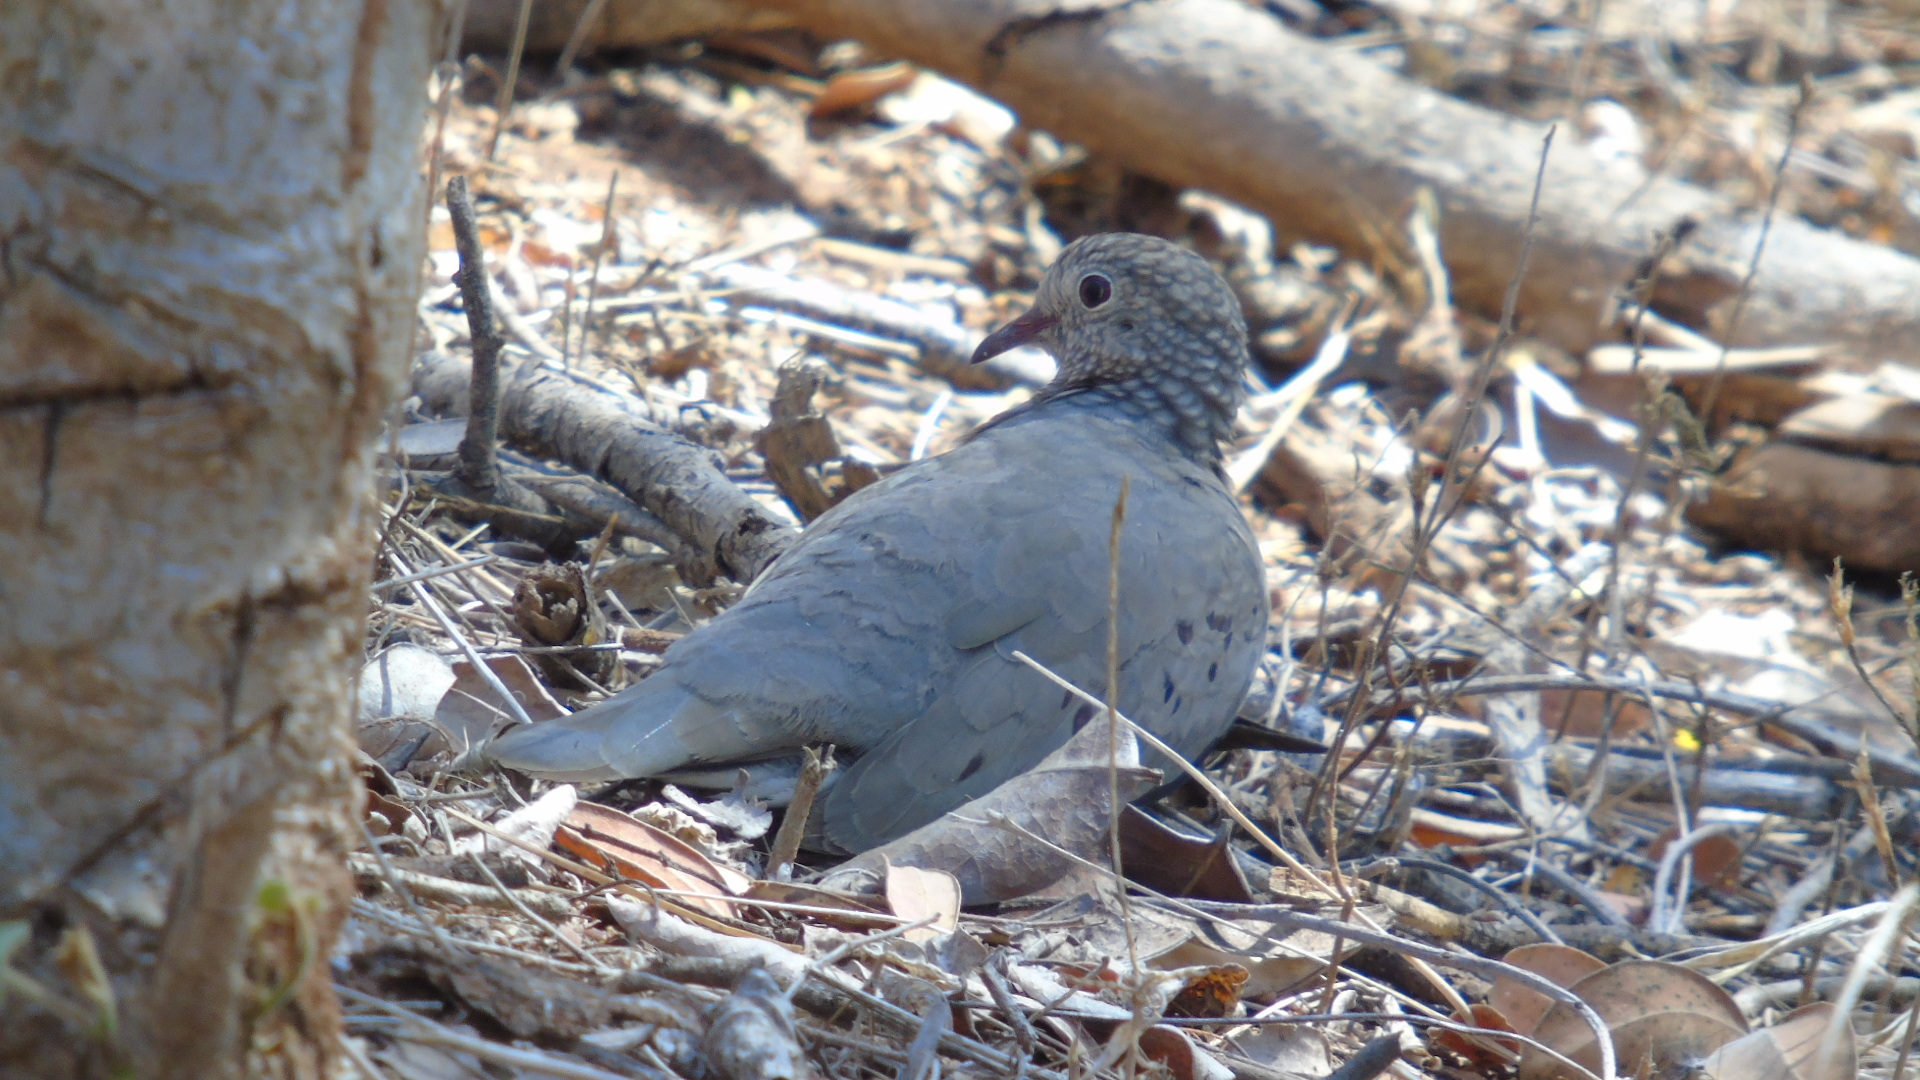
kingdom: Animalia
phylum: Chordata
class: Aves
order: Columbiformes
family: Columbidae
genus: Columbina
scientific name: Columbina passerina
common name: Common ground-dove
